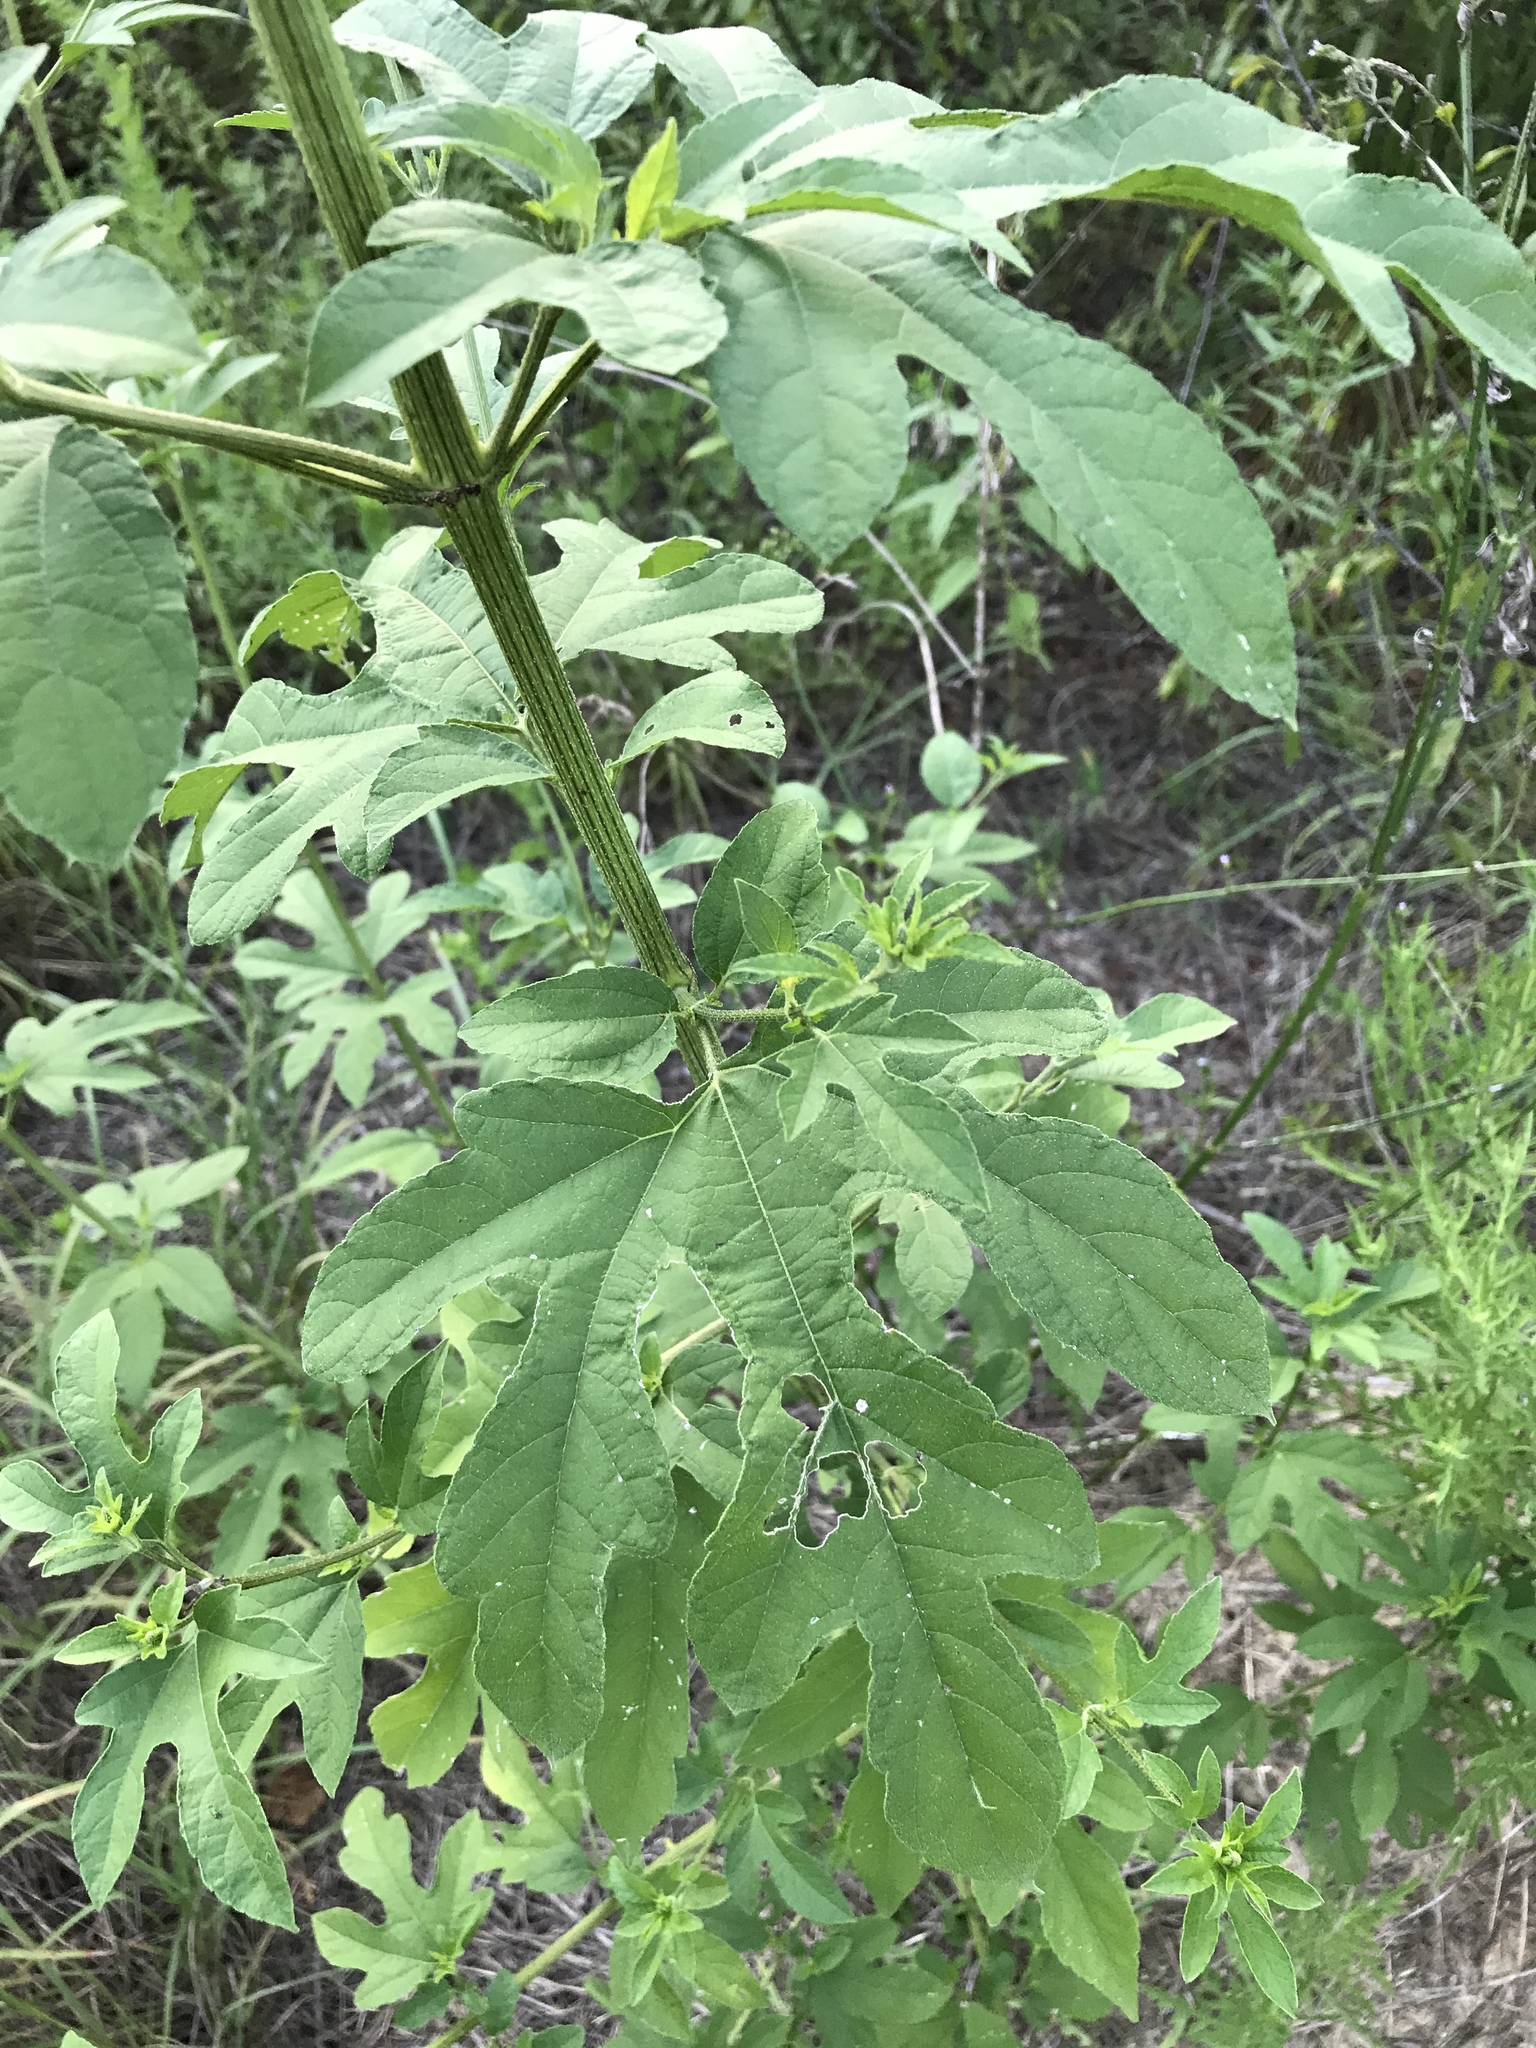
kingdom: Plantae
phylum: Tracheophyta
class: Magnoliopsida
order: Asterales
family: Asteraceae
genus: Ambrosia
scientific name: Ambrosia trifida
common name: Giant ragweed
